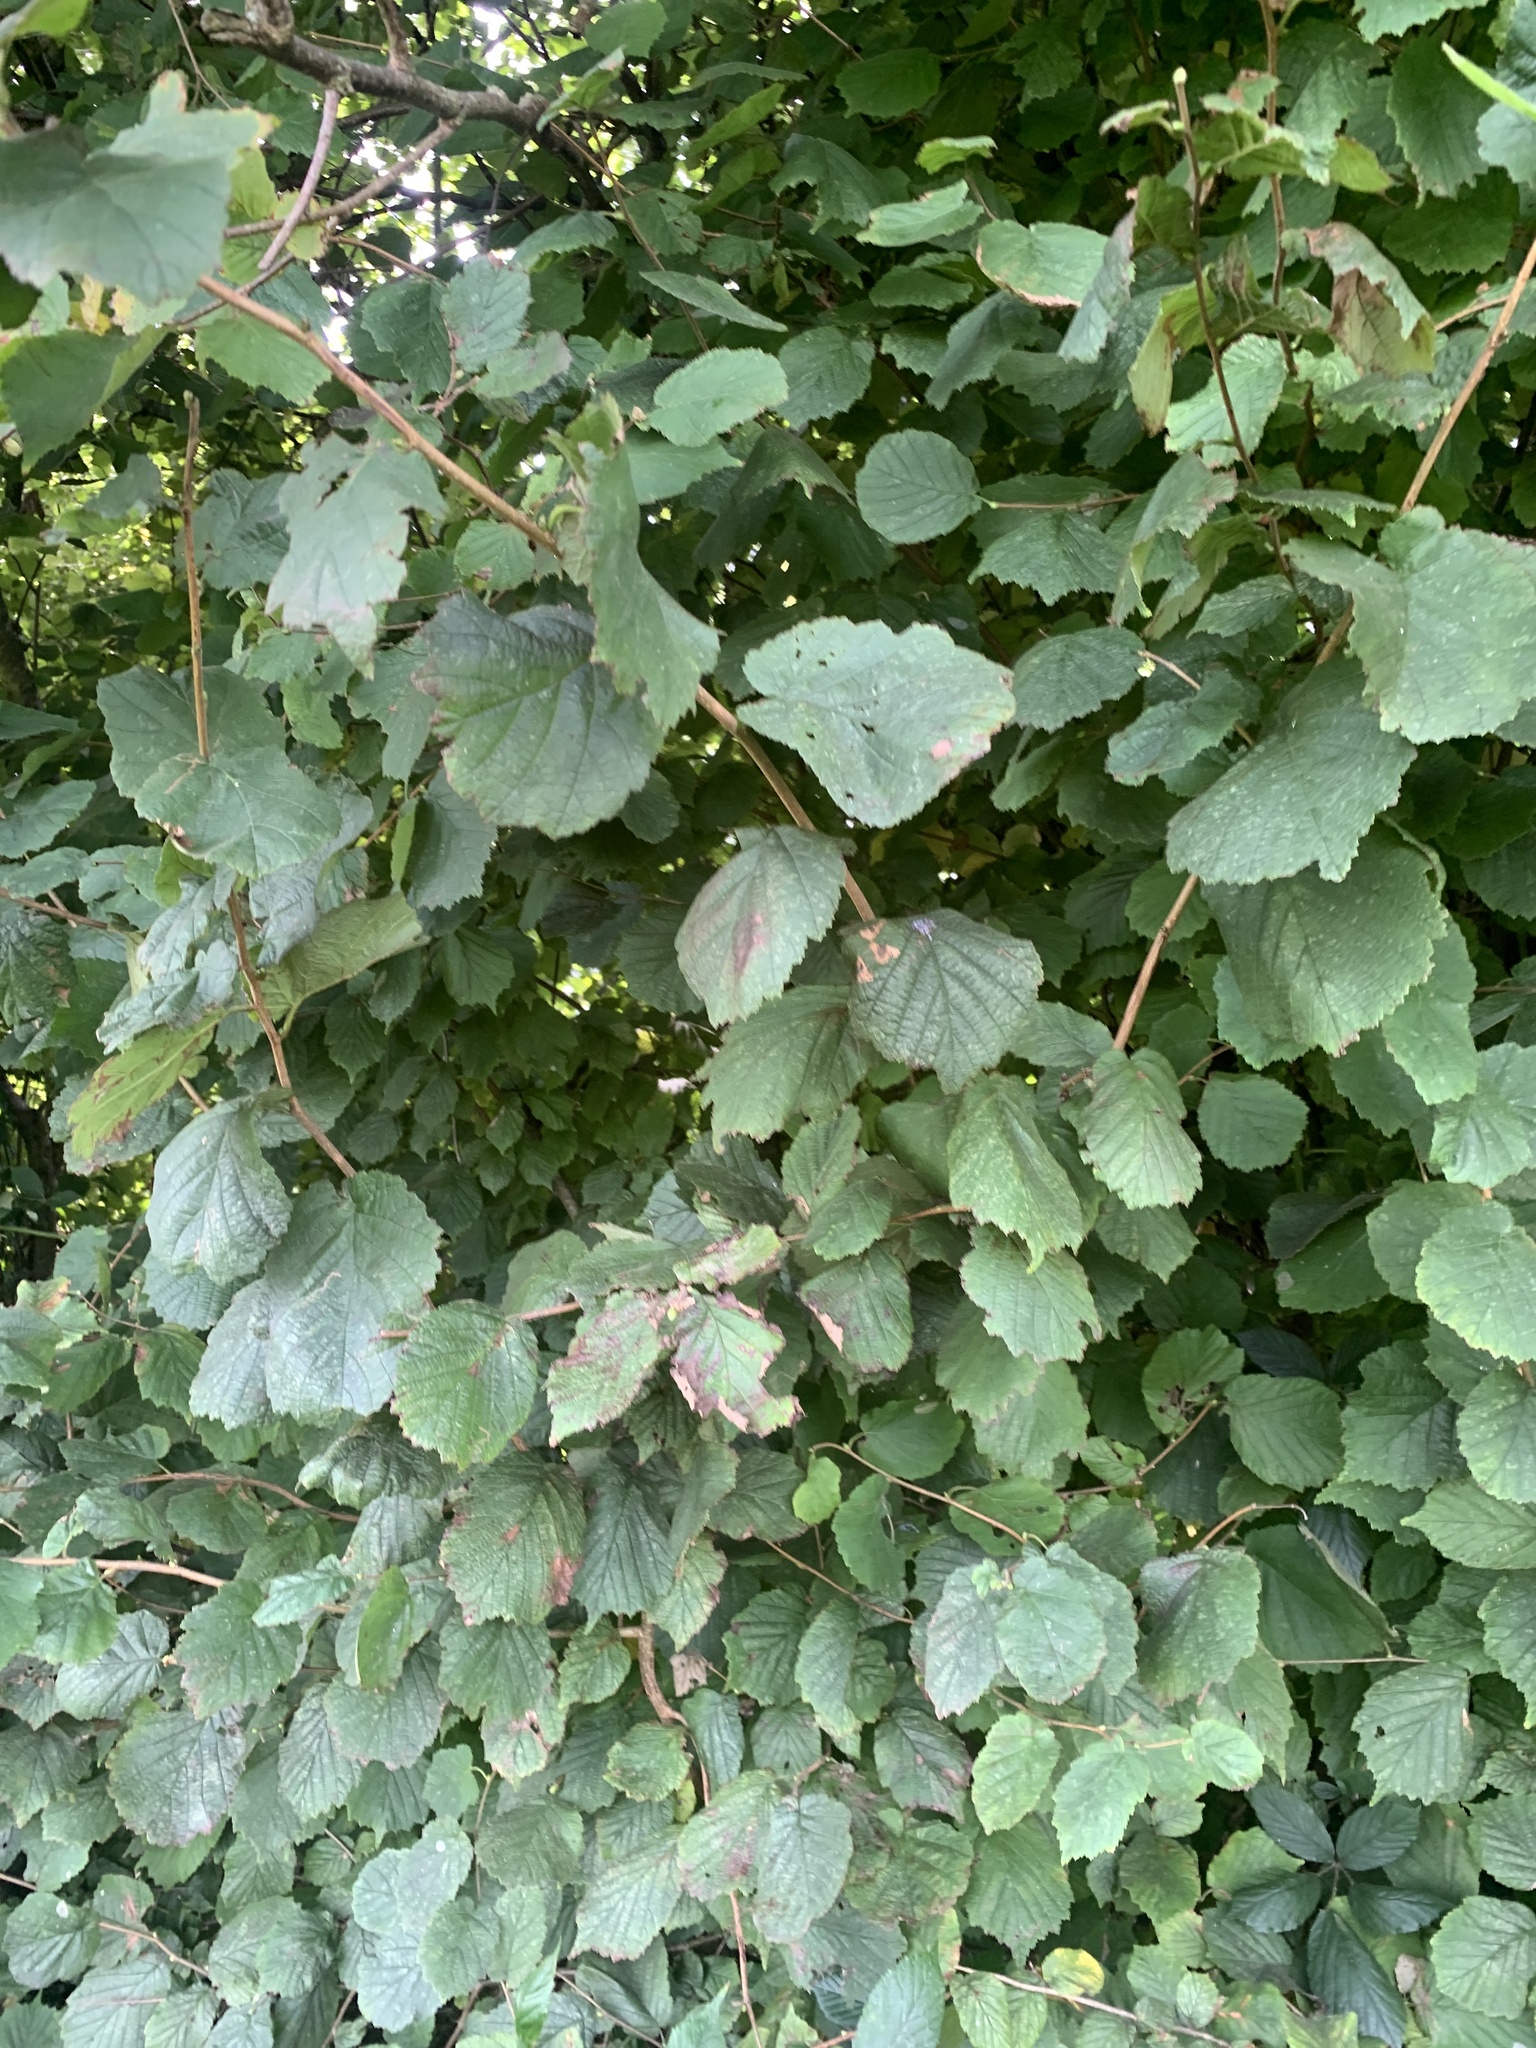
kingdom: Plantae
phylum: Tracheophyta
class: Magnoliopsida
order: Fagales
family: Betulaceae
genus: Corylus
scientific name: Corylus avellana
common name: European hazel
